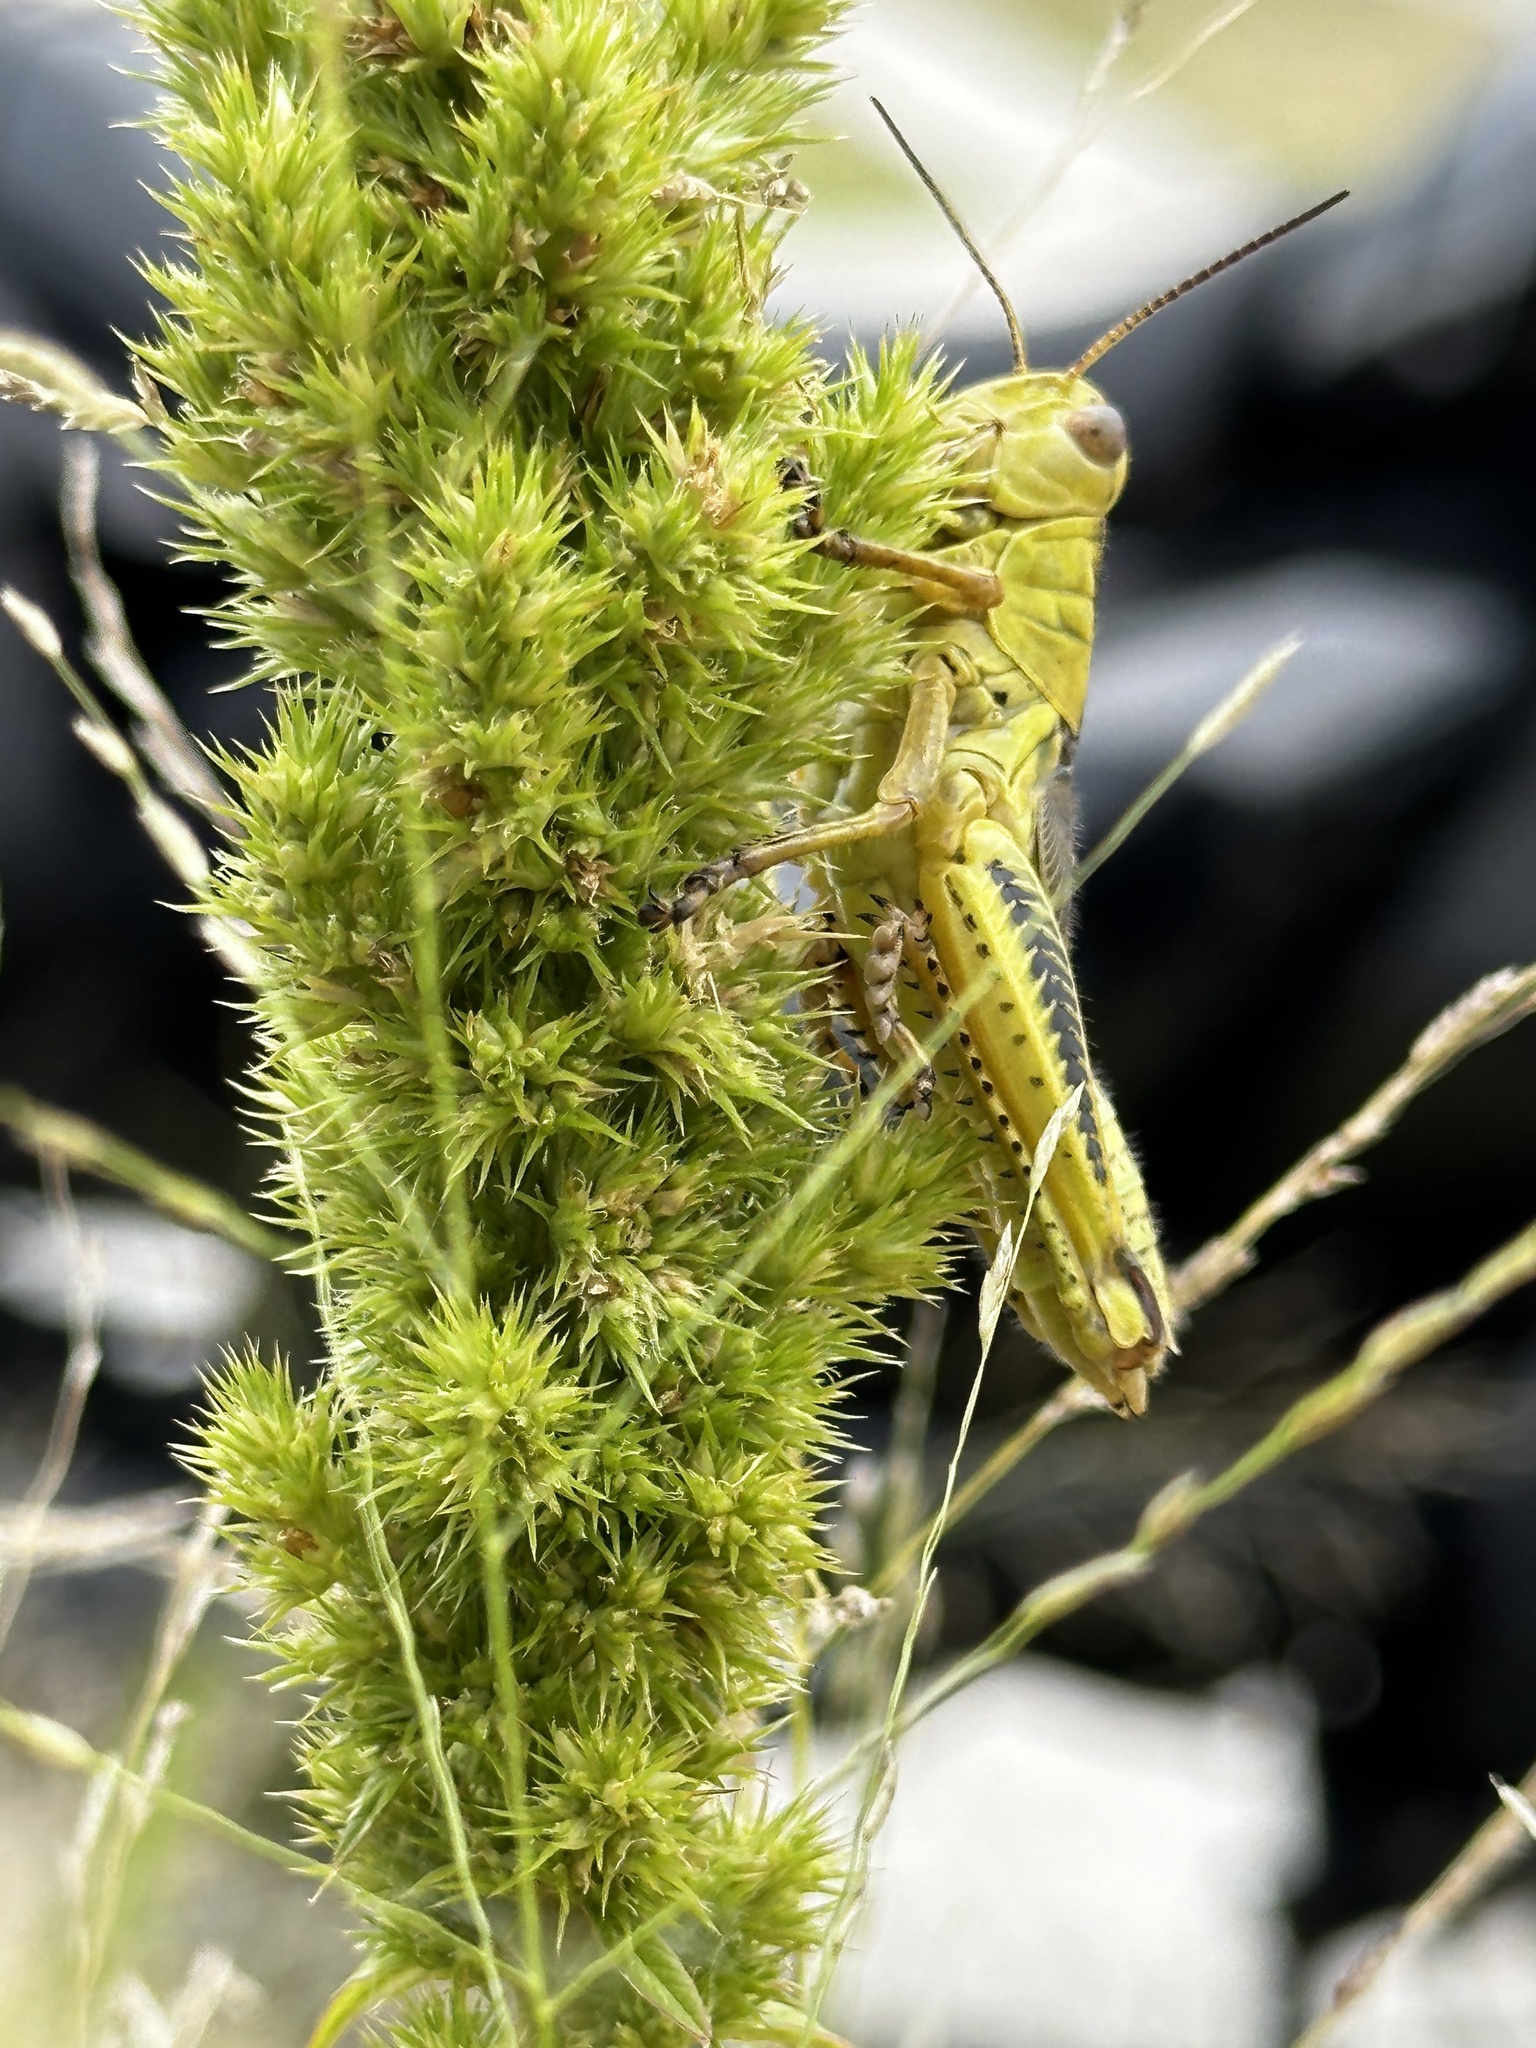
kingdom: Animalia
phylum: Arthropoda
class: Insecta
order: Orthoptera
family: Acrididae
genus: Melanoplus
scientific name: Melanoplus differentialis
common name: Differential grasshopper
